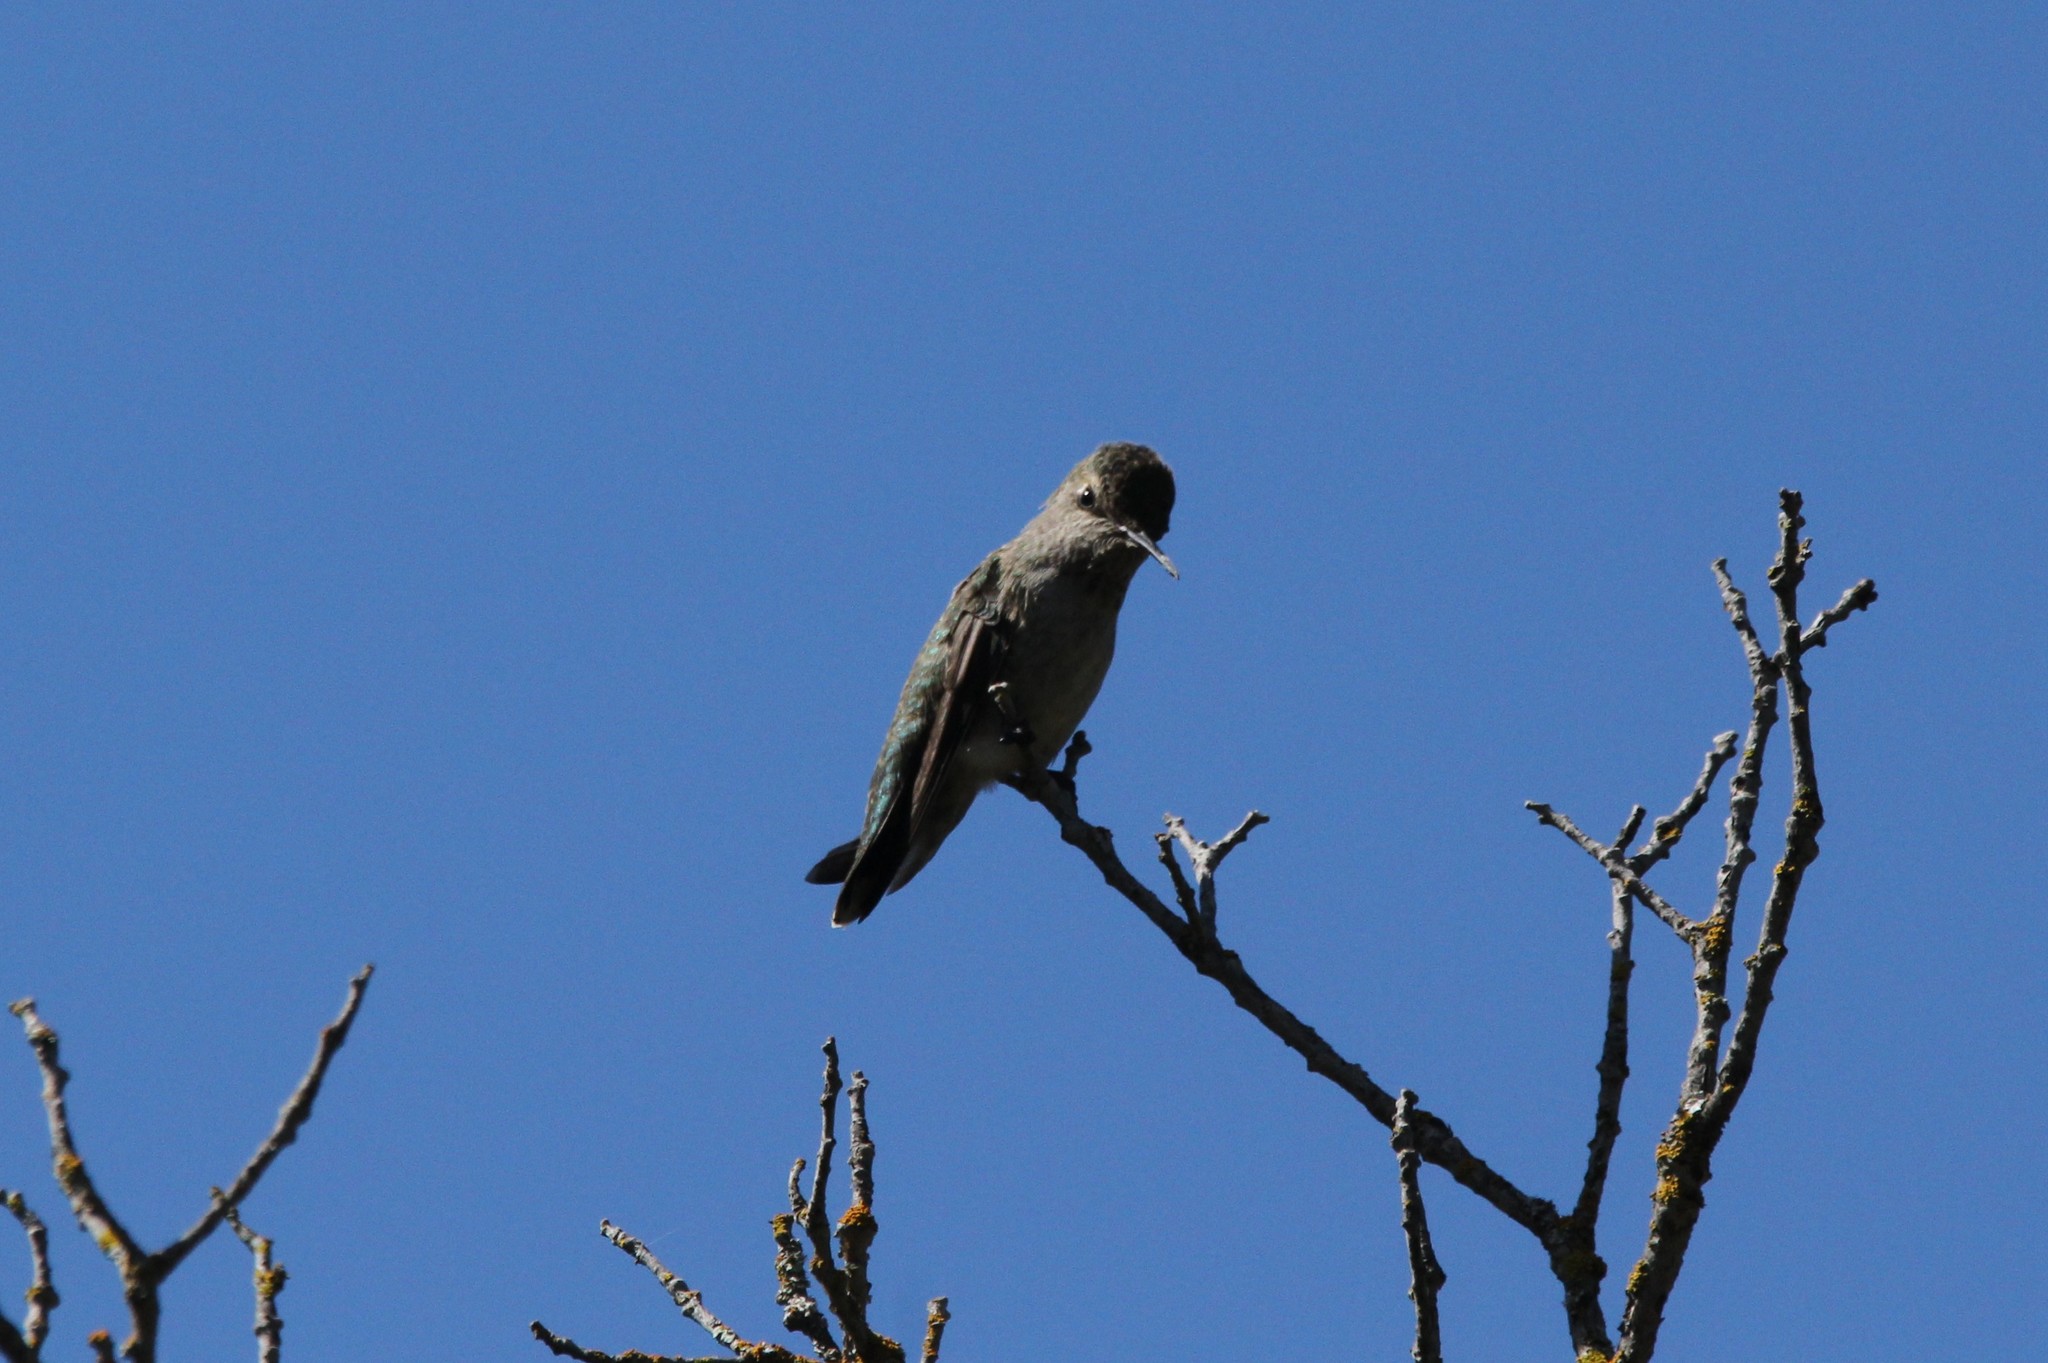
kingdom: Animalia
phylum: Chordata
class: Aves
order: Apodiformes
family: Trochilidae
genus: Calypte
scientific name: Calypte anna
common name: Anna's hummingbird
